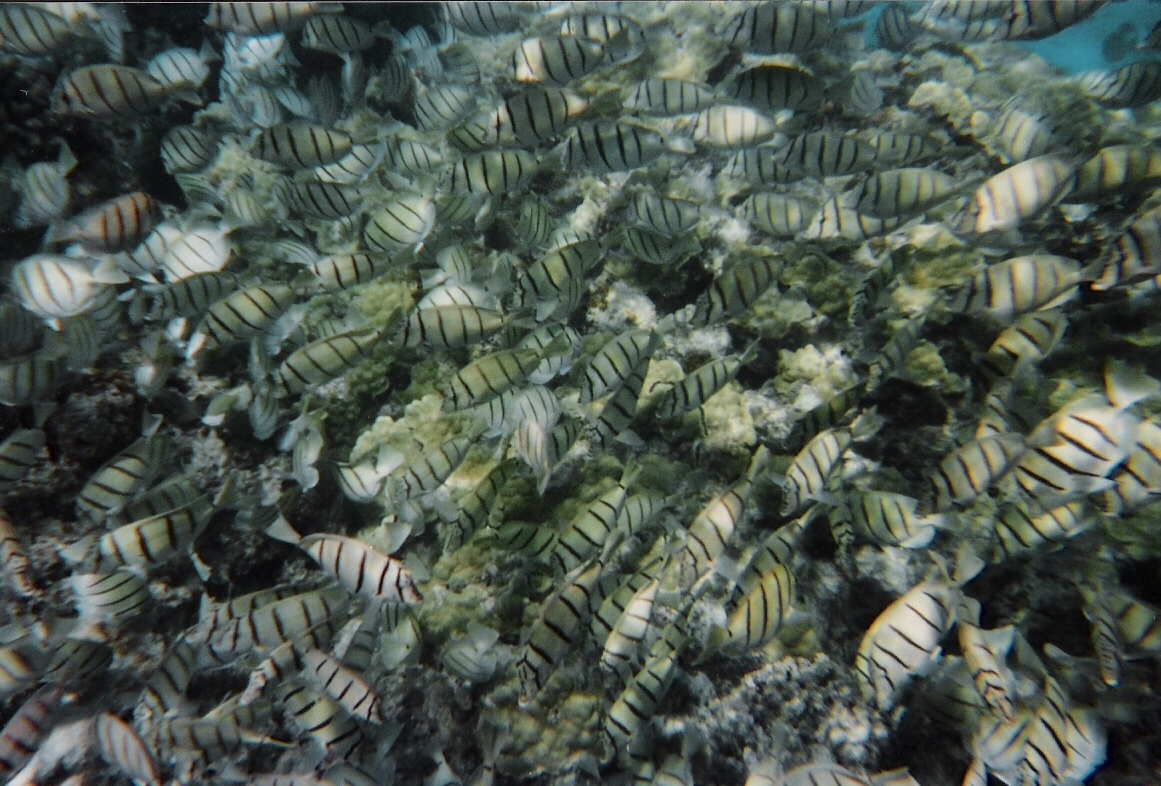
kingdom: Animalia
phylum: Chordata
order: Perciformes
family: Acanthuridae
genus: Acanthurus
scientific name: Acanthurus triostegus
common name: Convict surgeonfish
